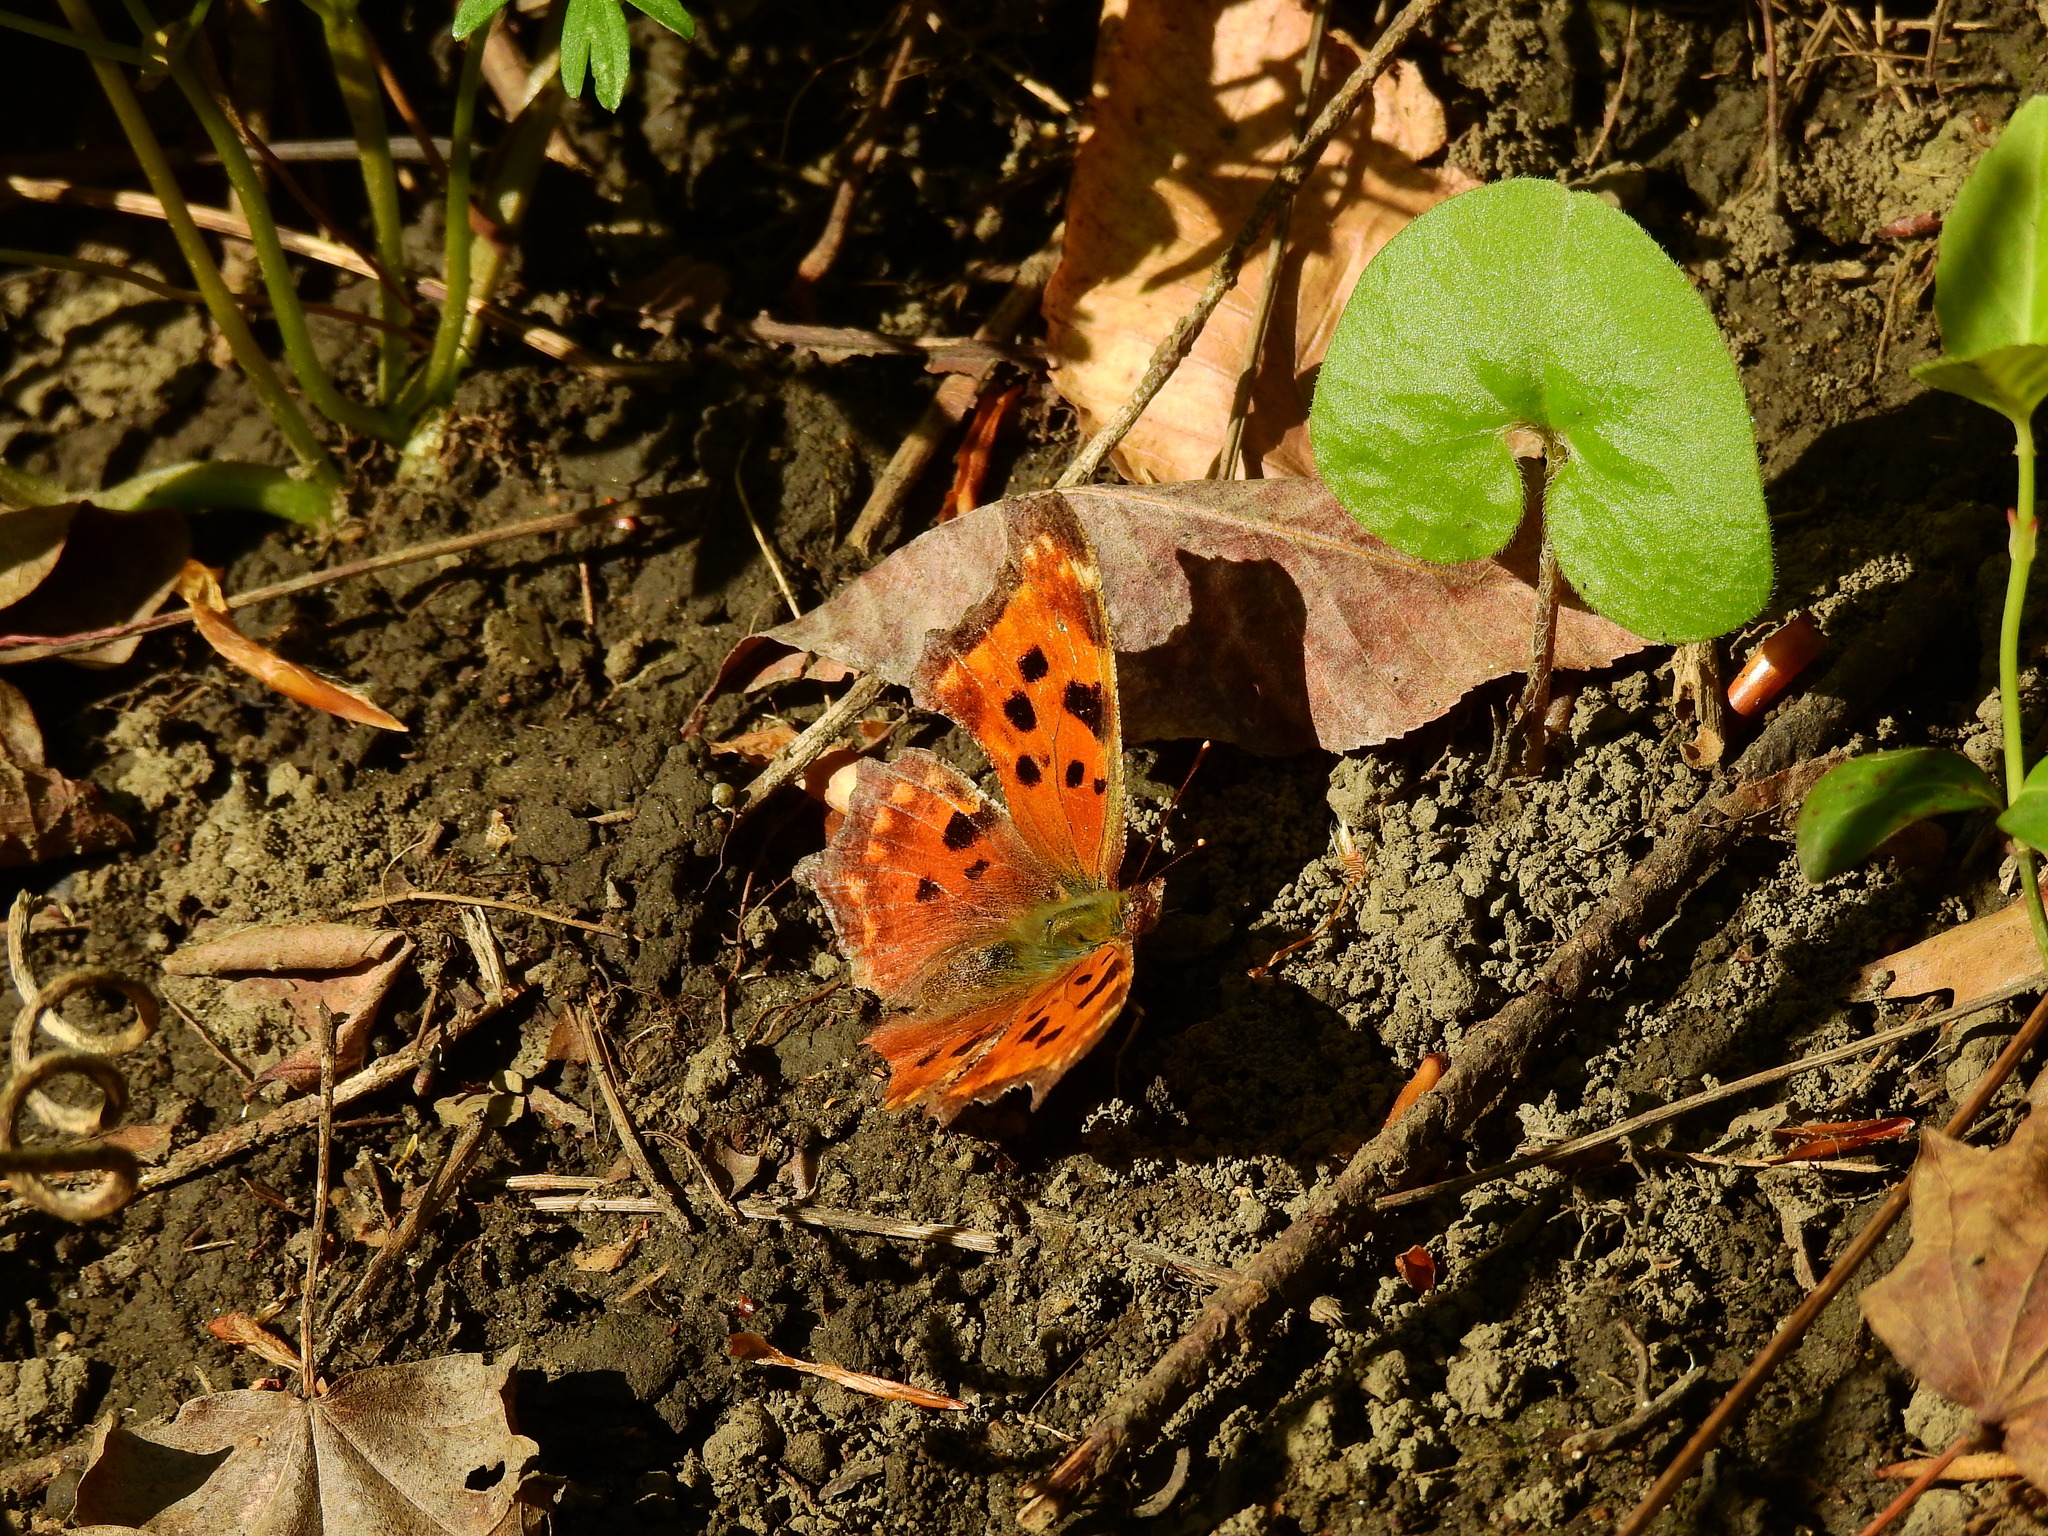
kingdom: Animalia
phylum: Arthropoda
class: Insecta
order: Lepidoptera
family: Nymphalidae
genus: Polygonia
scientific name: Polygonia comma
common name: Eastern comma
